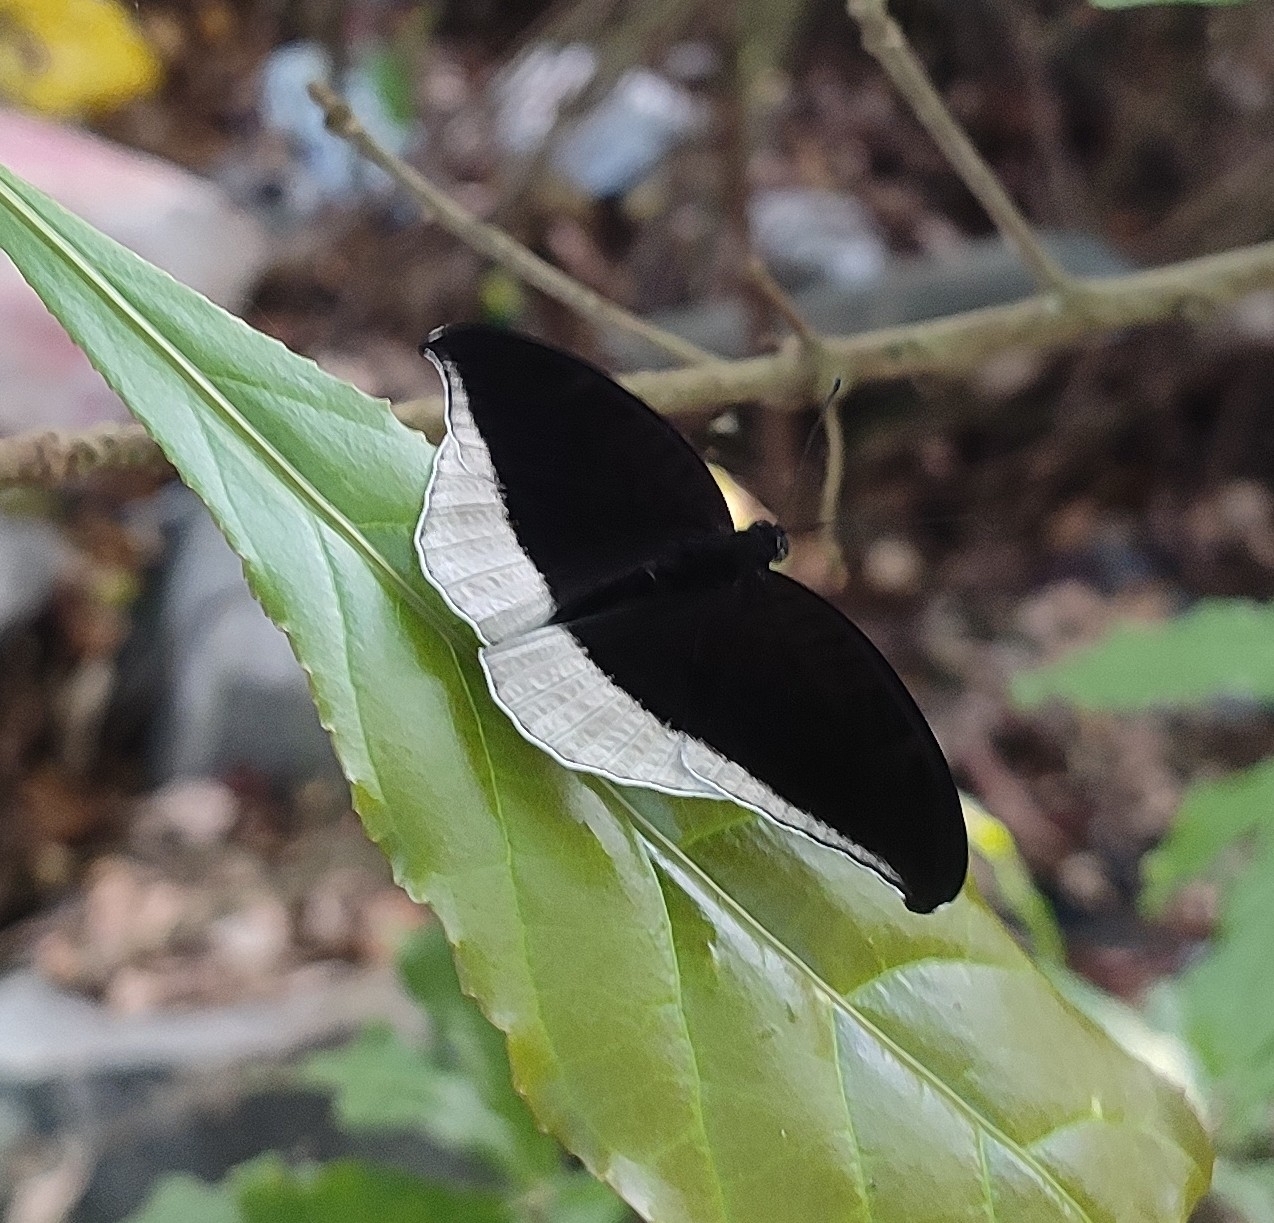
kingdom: Animalia
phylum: Arthropoda
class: Insecta
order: Lepidoptera
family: Nymphalidae
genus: Tanaecia
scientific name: Tanaecia lepidea
